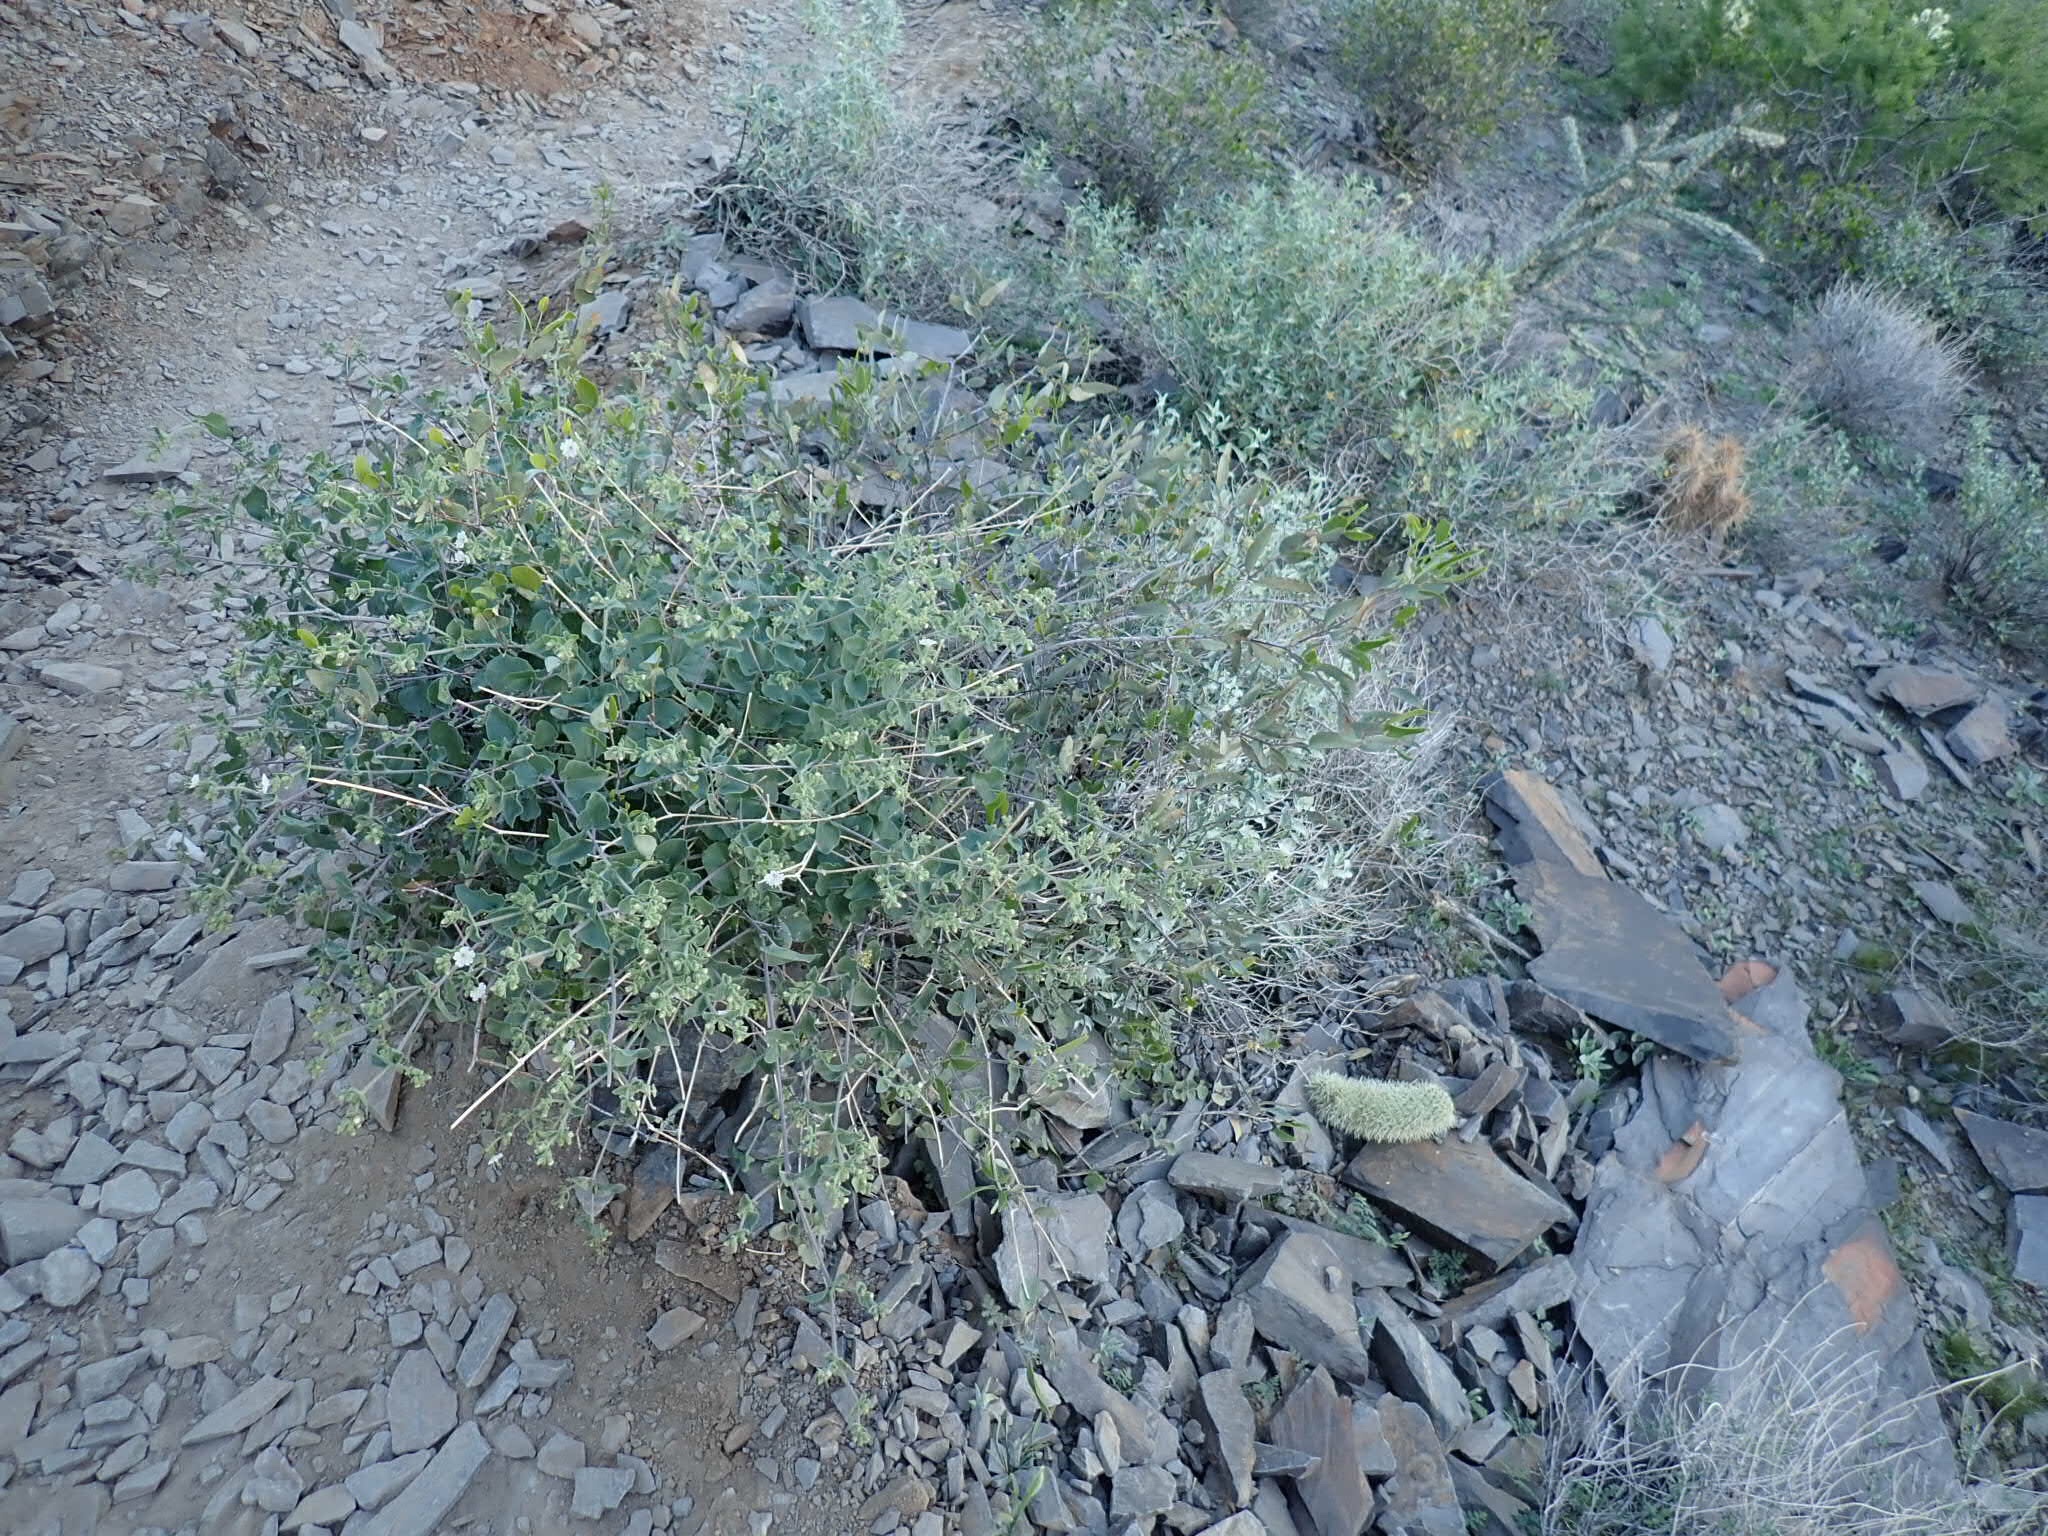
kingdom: Plantae
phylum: Tracheophyta
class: Magnoliopsida
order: Caryophyllales
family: Nyctaginaceae
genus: Mirabilis
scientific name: Mirabilis laevis
